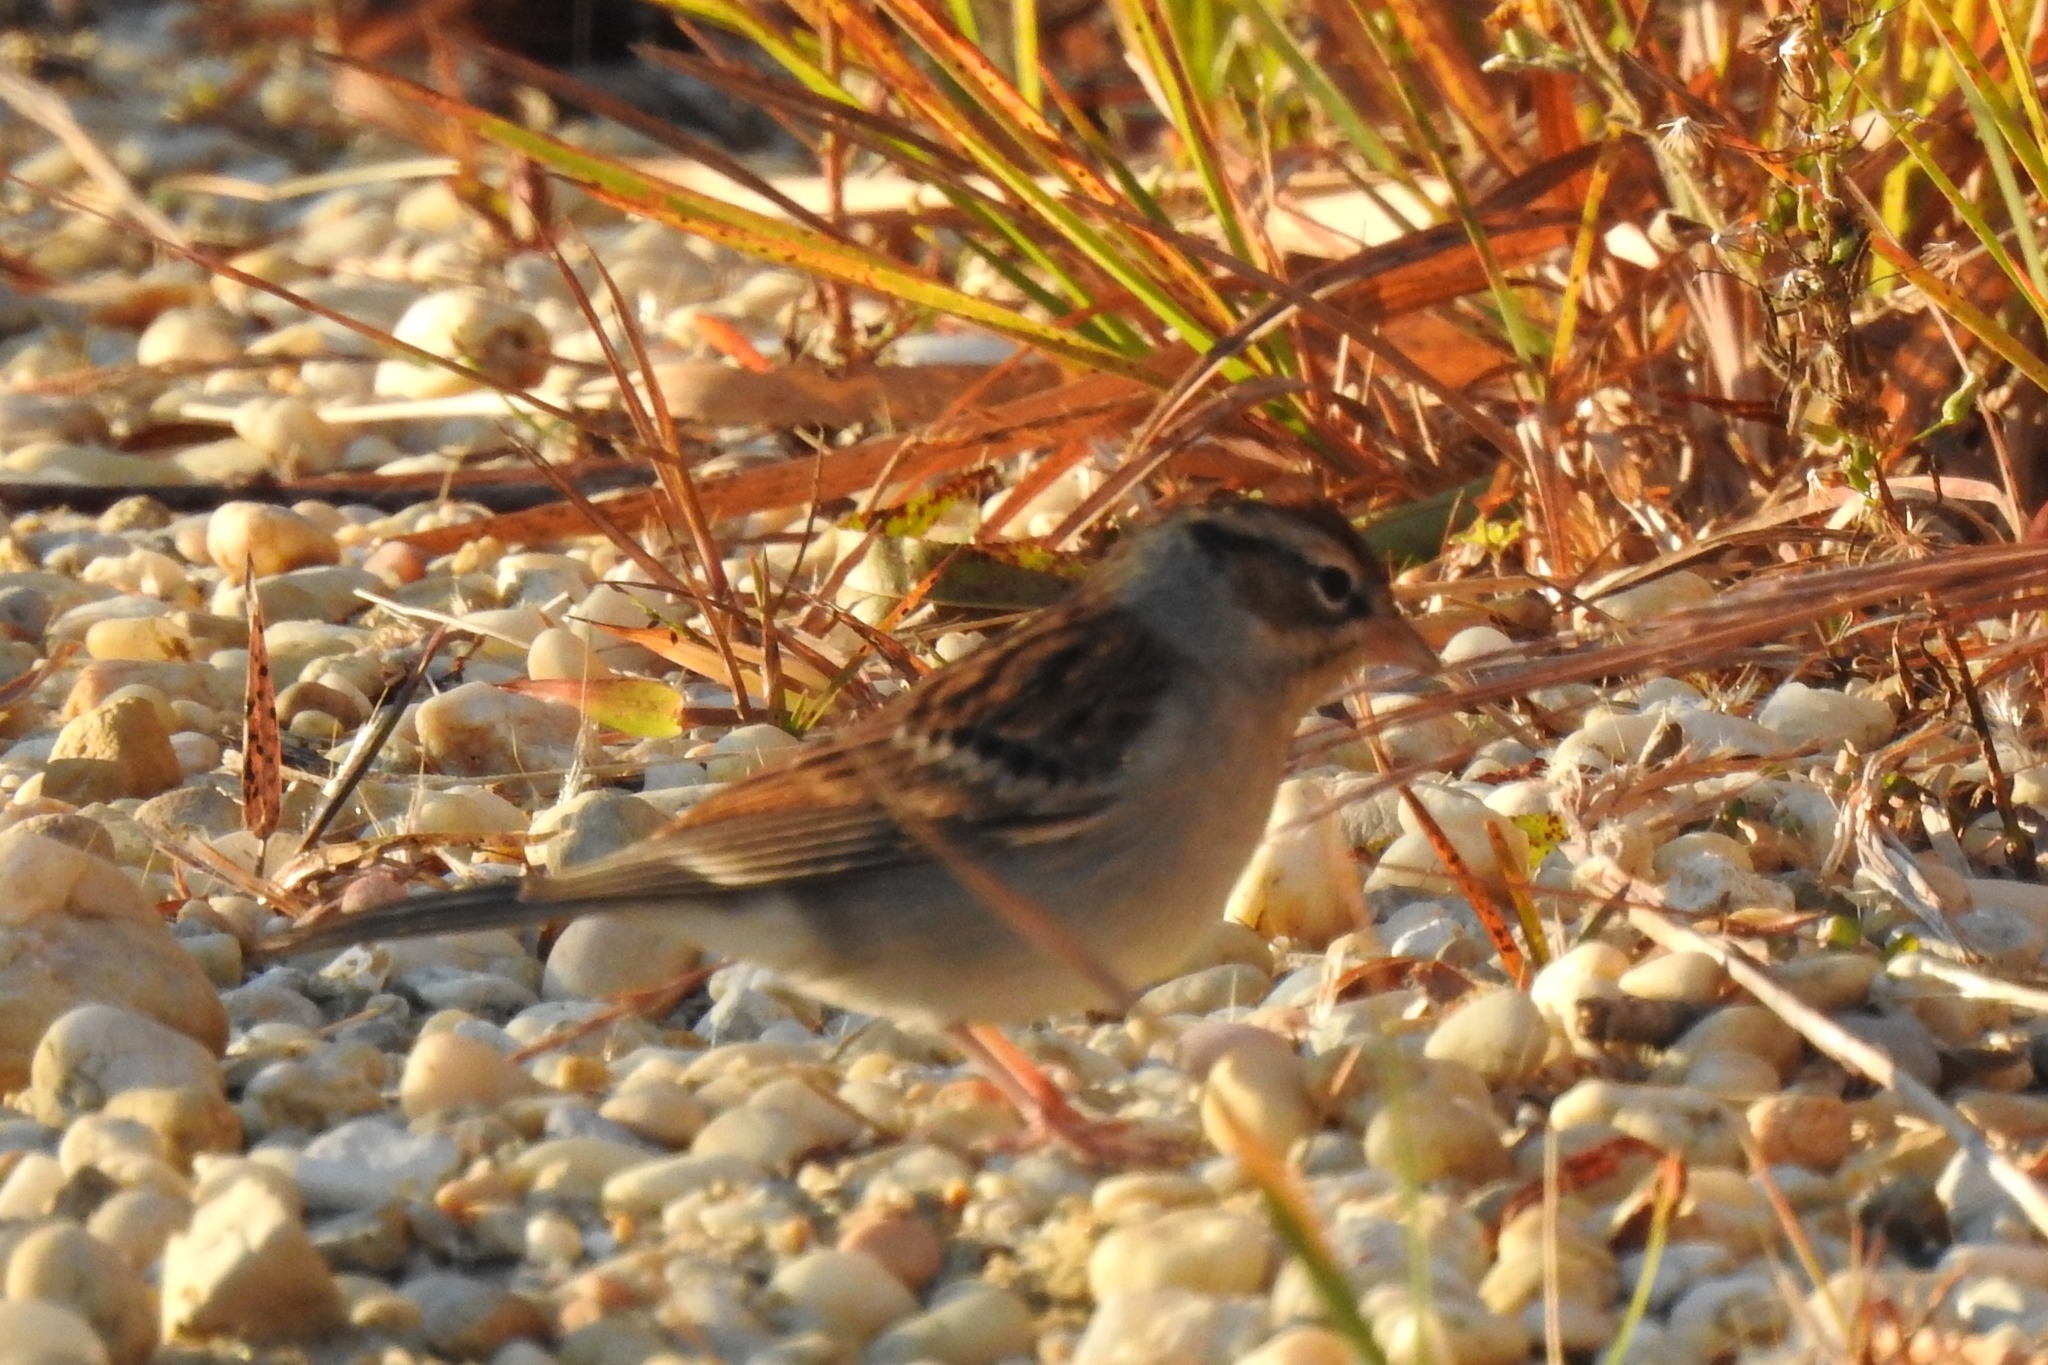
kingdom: Animalia
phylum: Chordata
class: Aves
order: Passeriformes
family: Passerellidae
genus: Spizella
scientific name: Spizella passerina
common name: Chipping sparrow
